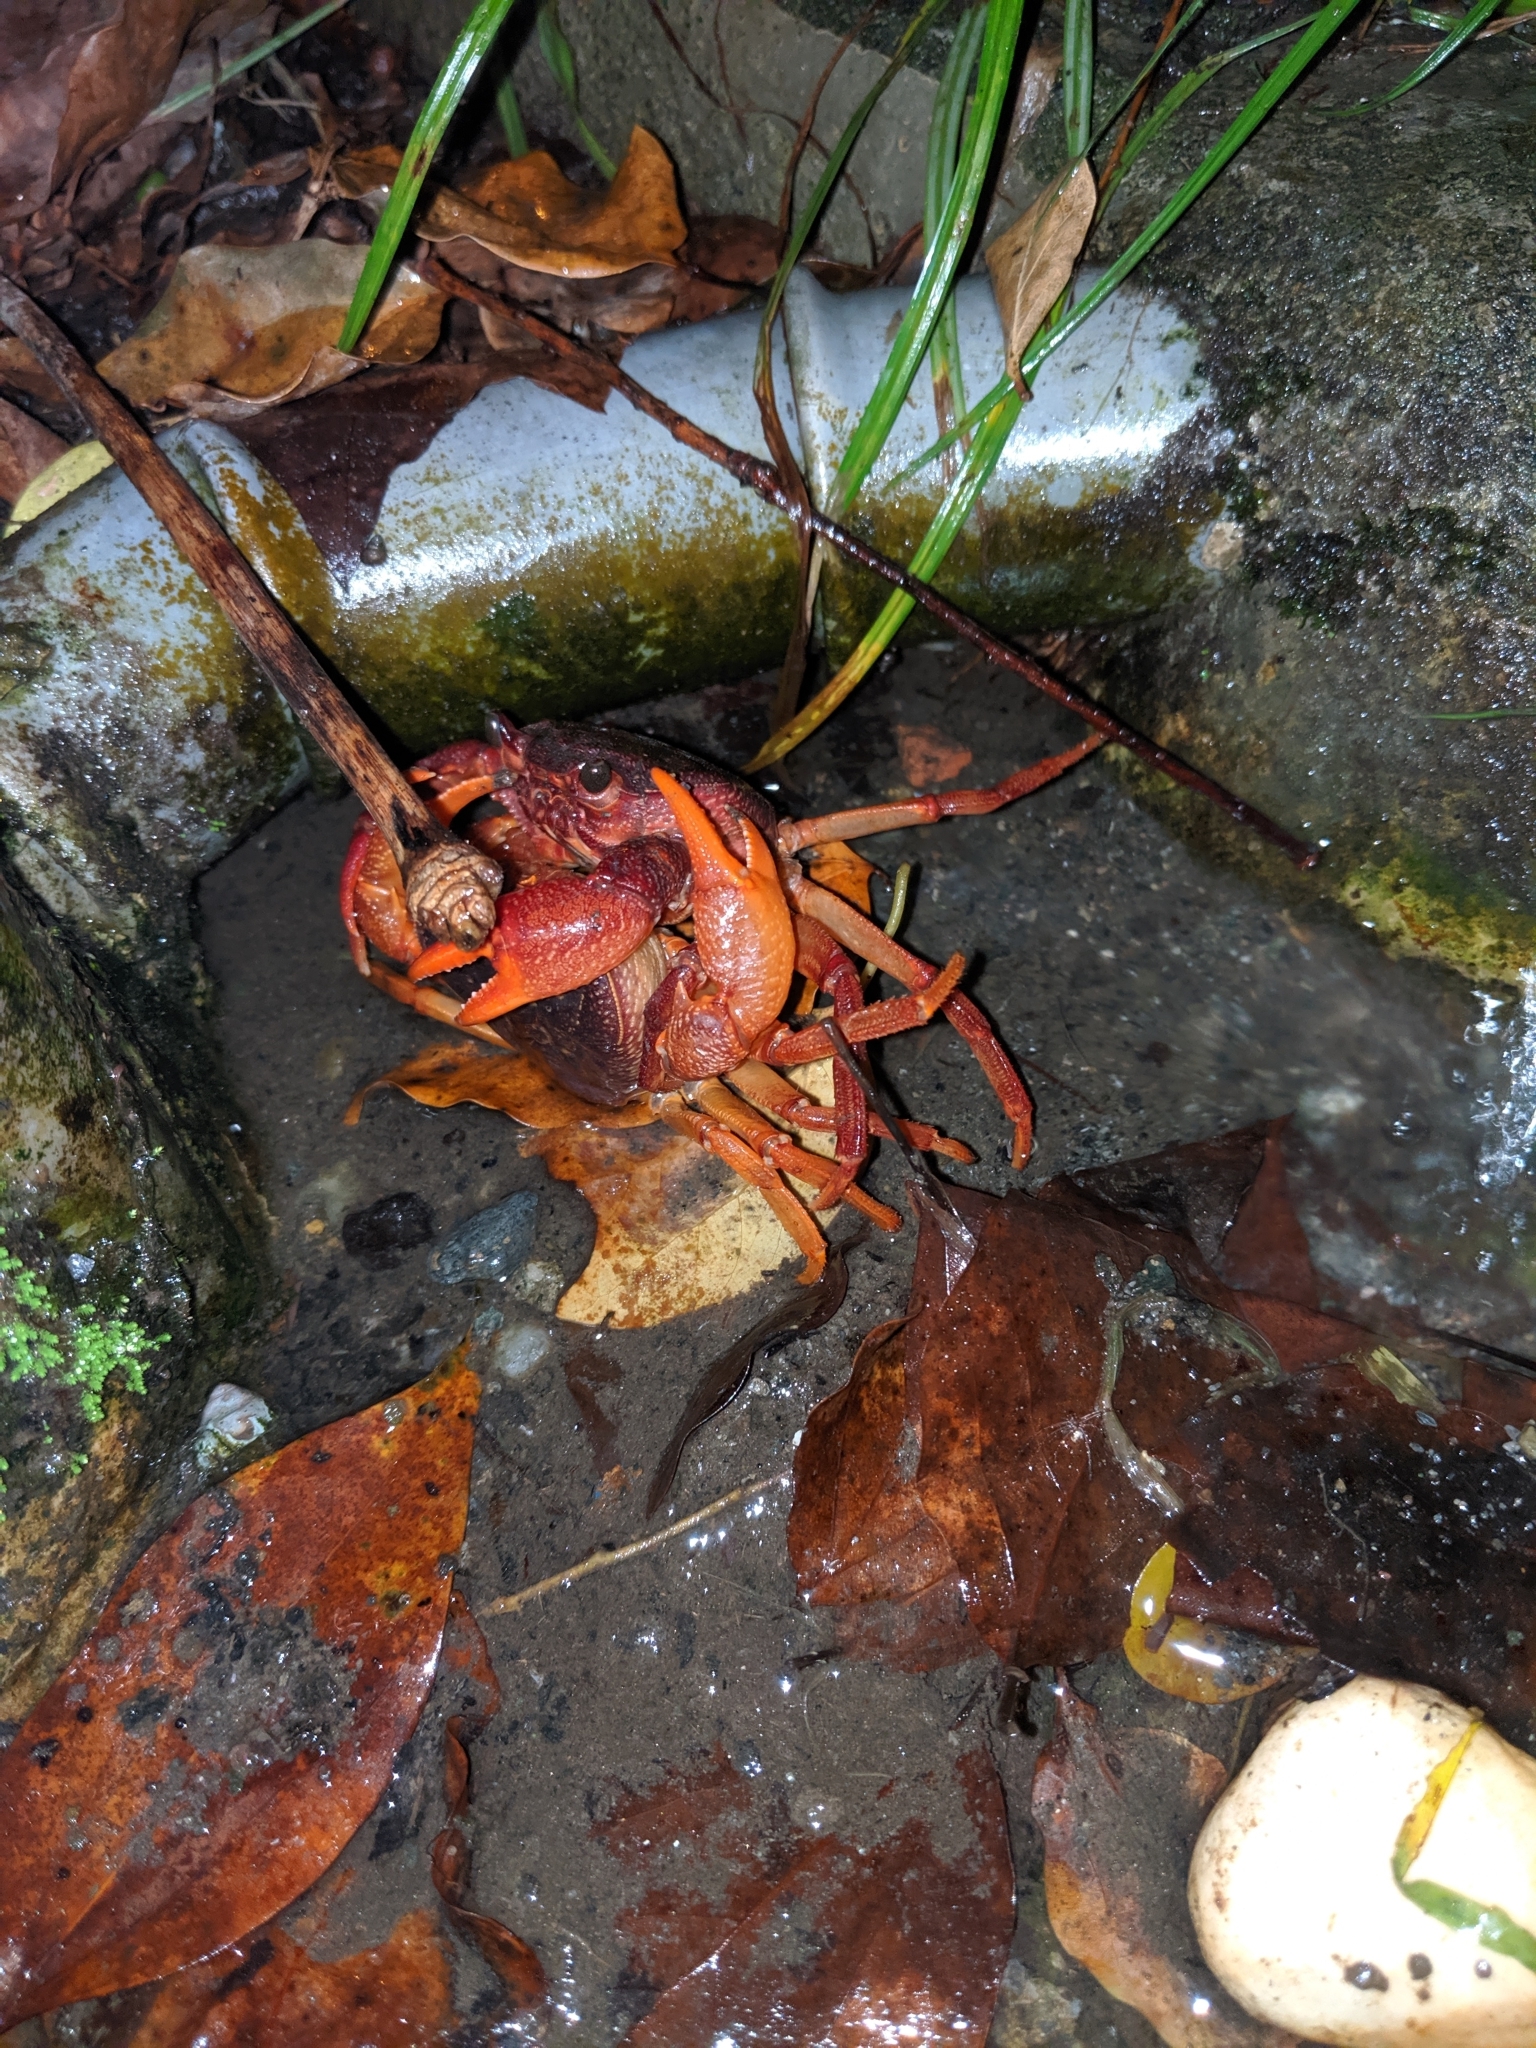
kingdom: Animalia
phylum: Arthropoda
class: Malacostraca
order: Decapoda
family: Potamidae
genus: Candidiopotamon
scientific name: Candidiopotamon rathbuni
